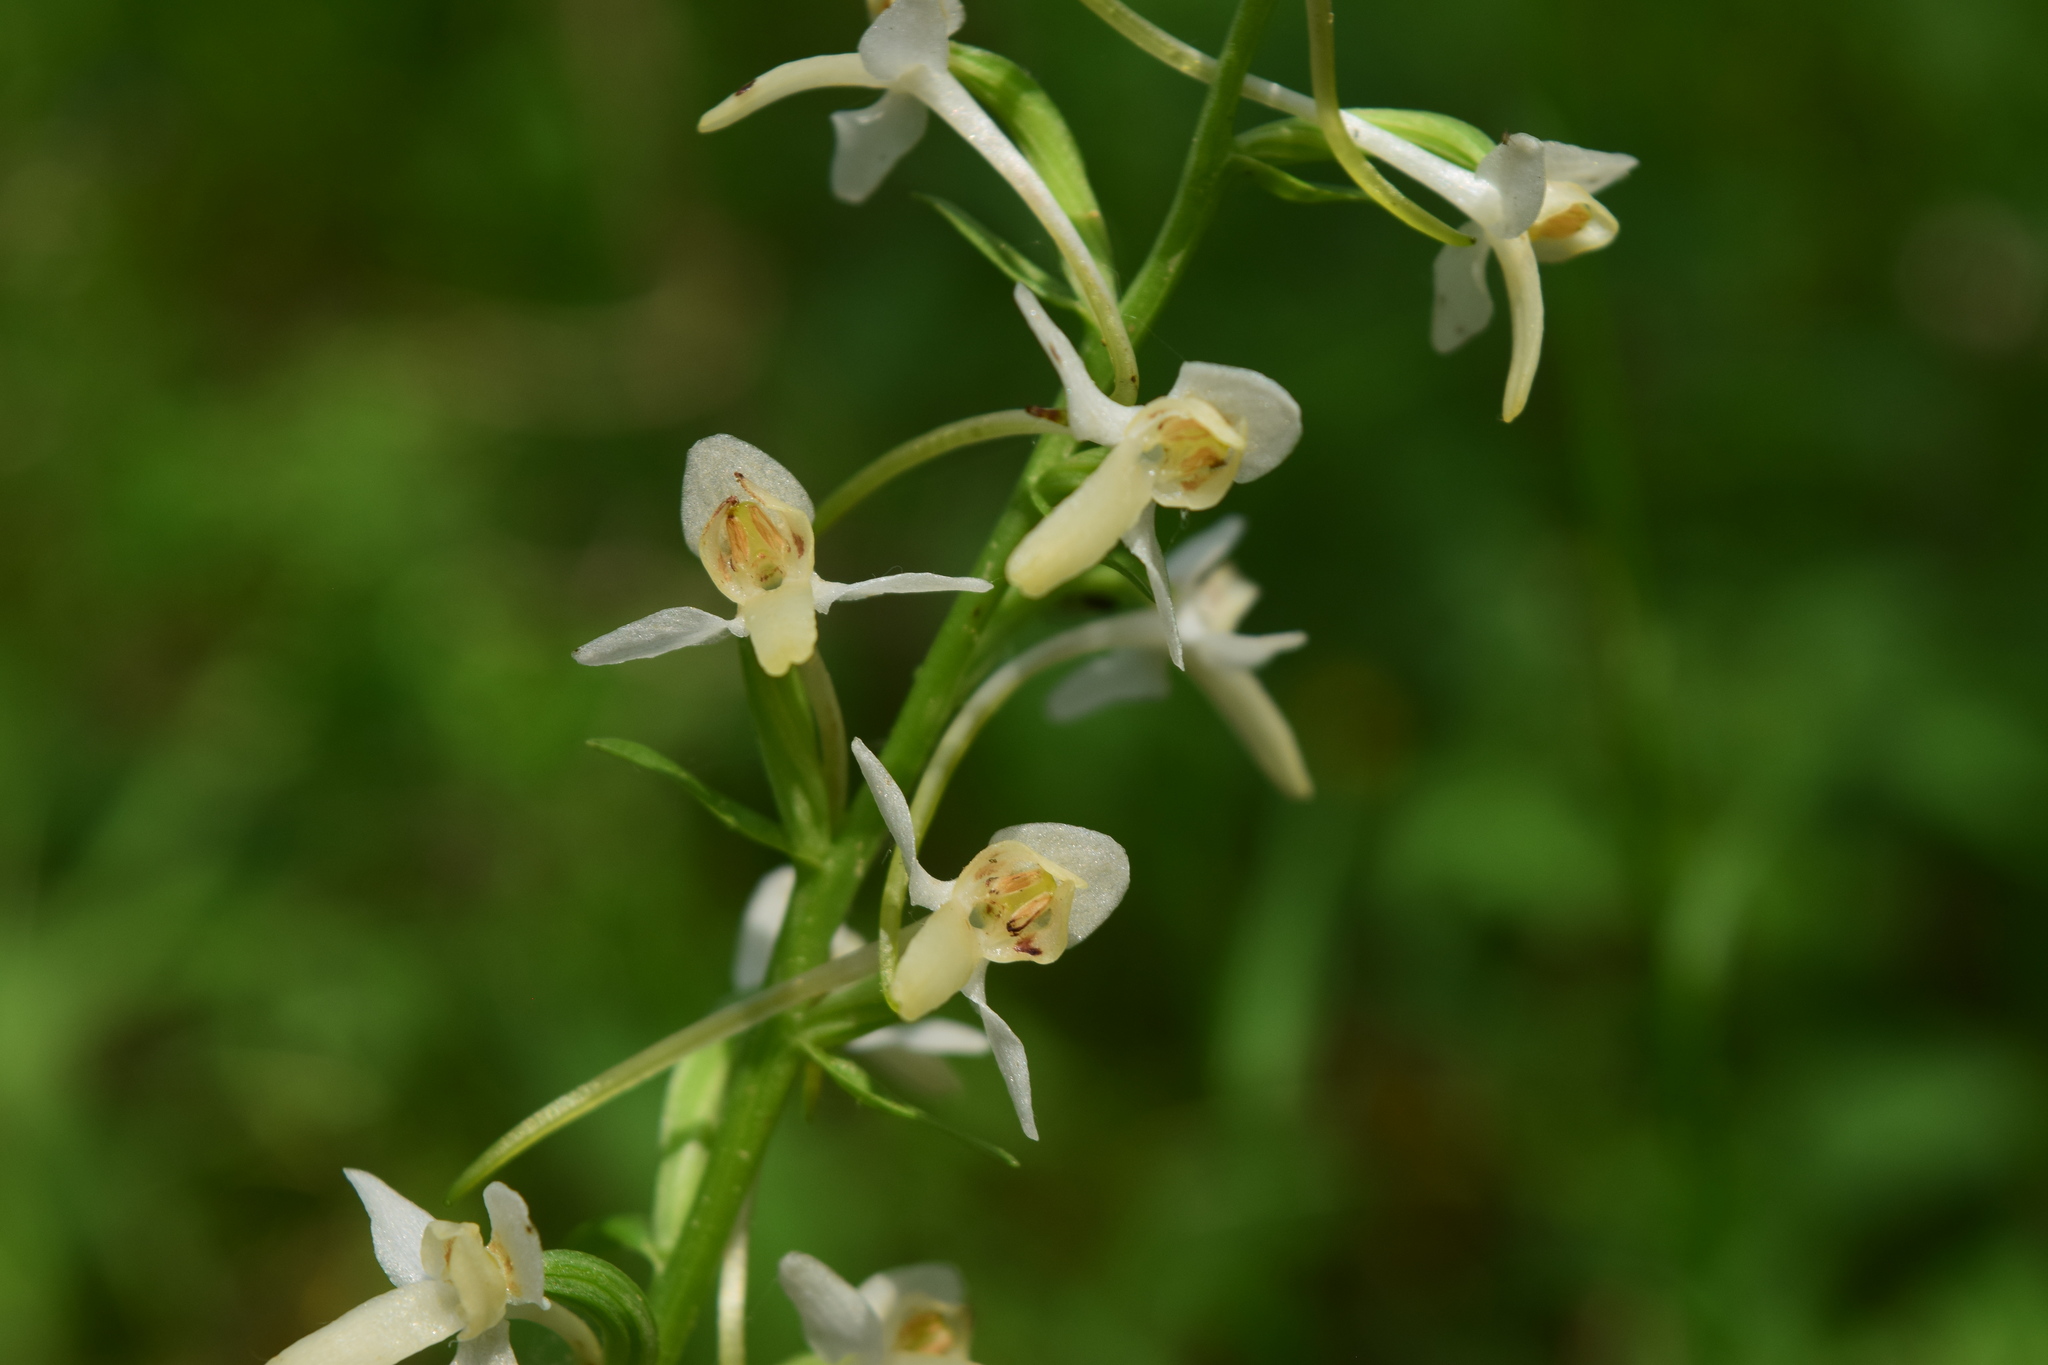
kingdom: Plantae
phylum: Tracheophyta
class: Liliopsida
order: Asparagales
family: Orchidaceae
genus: Platanthera
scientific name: Platanthera bifolia
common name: Lesser butterfly-orchid
